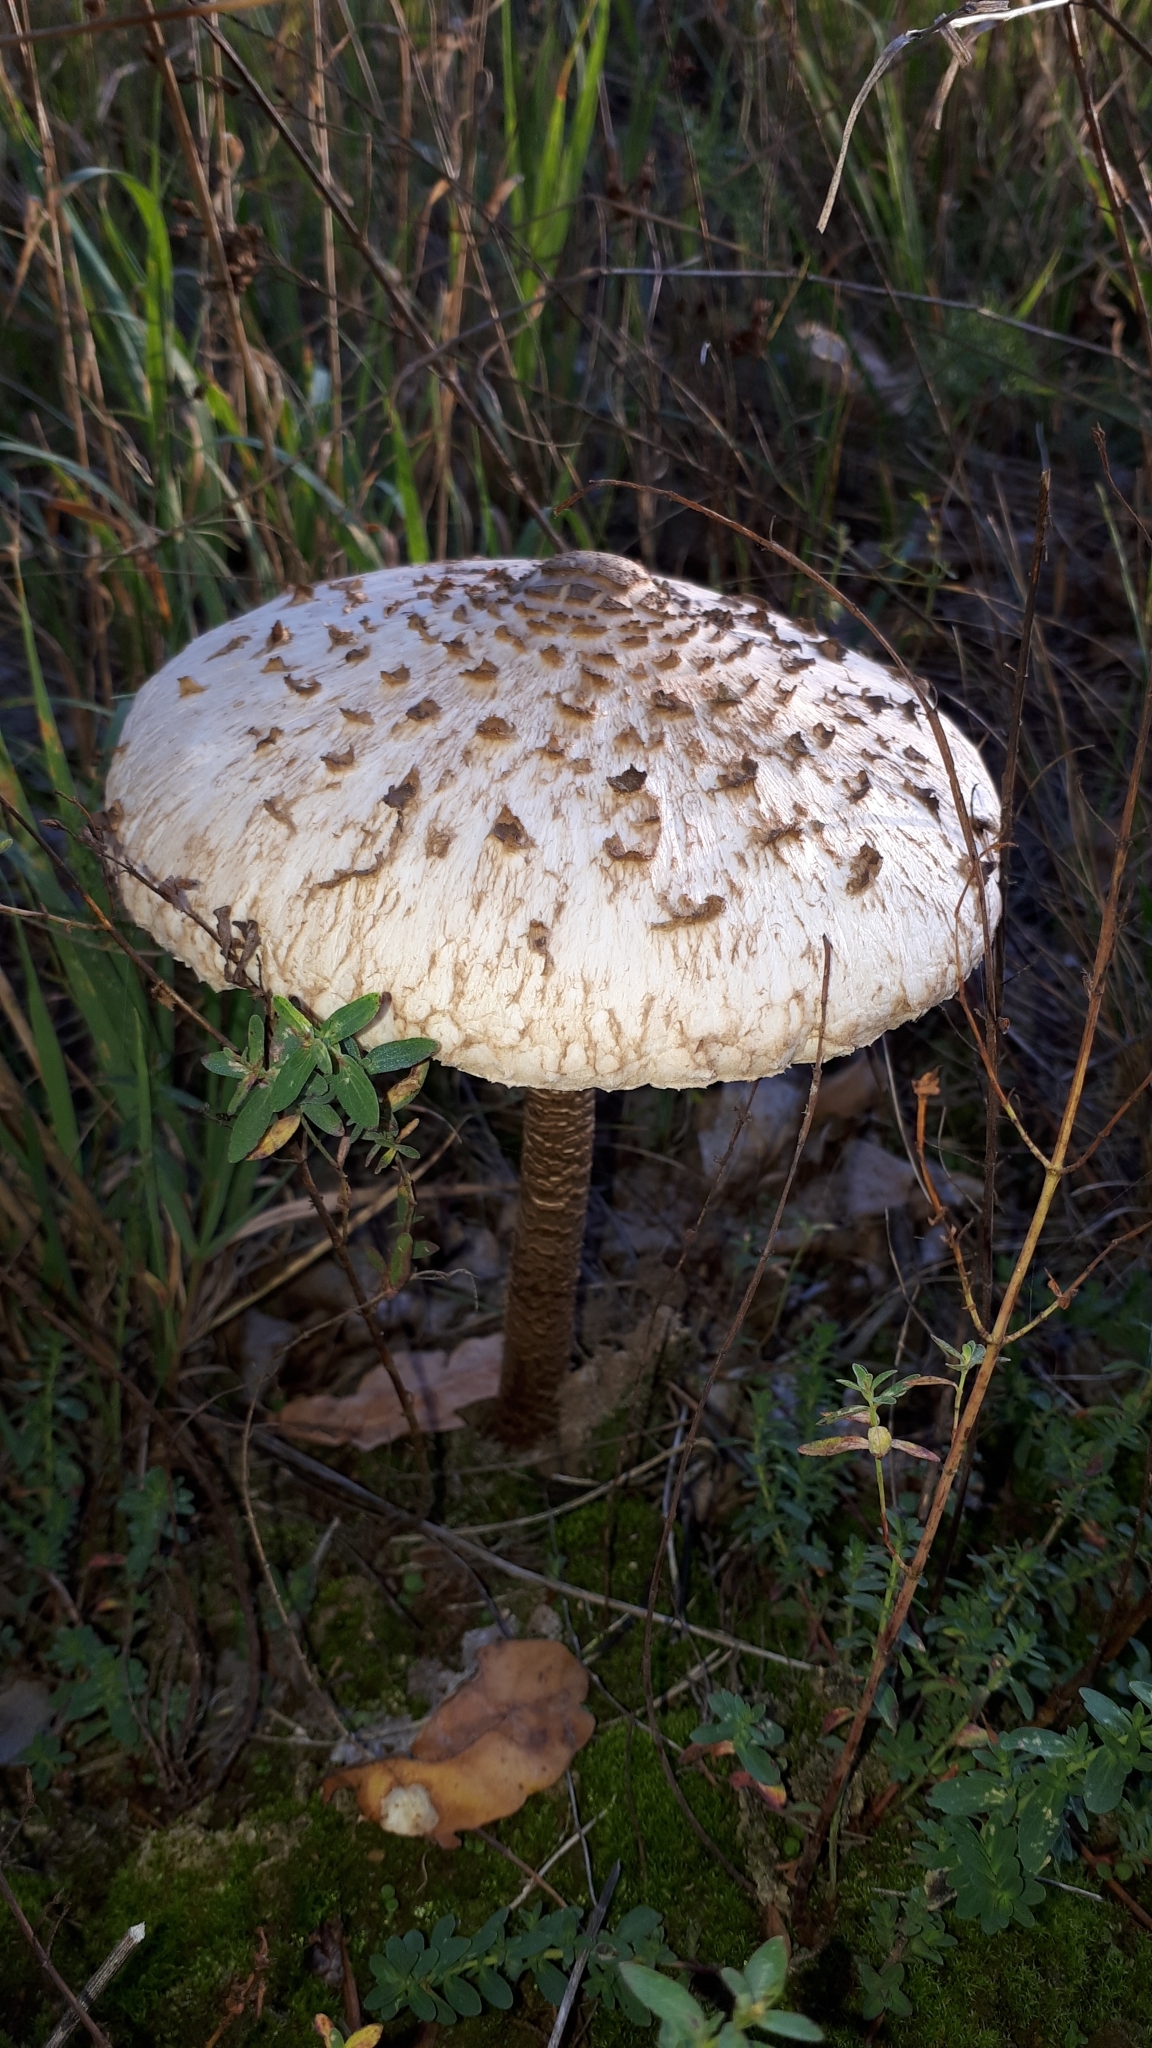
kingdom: Fungi
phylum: Basidiomycota
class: Agaricomycetes
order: Agaricales
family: Agaricaceae
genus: Macrolepiota
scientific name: Macrolepiota procera
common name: Parasol
